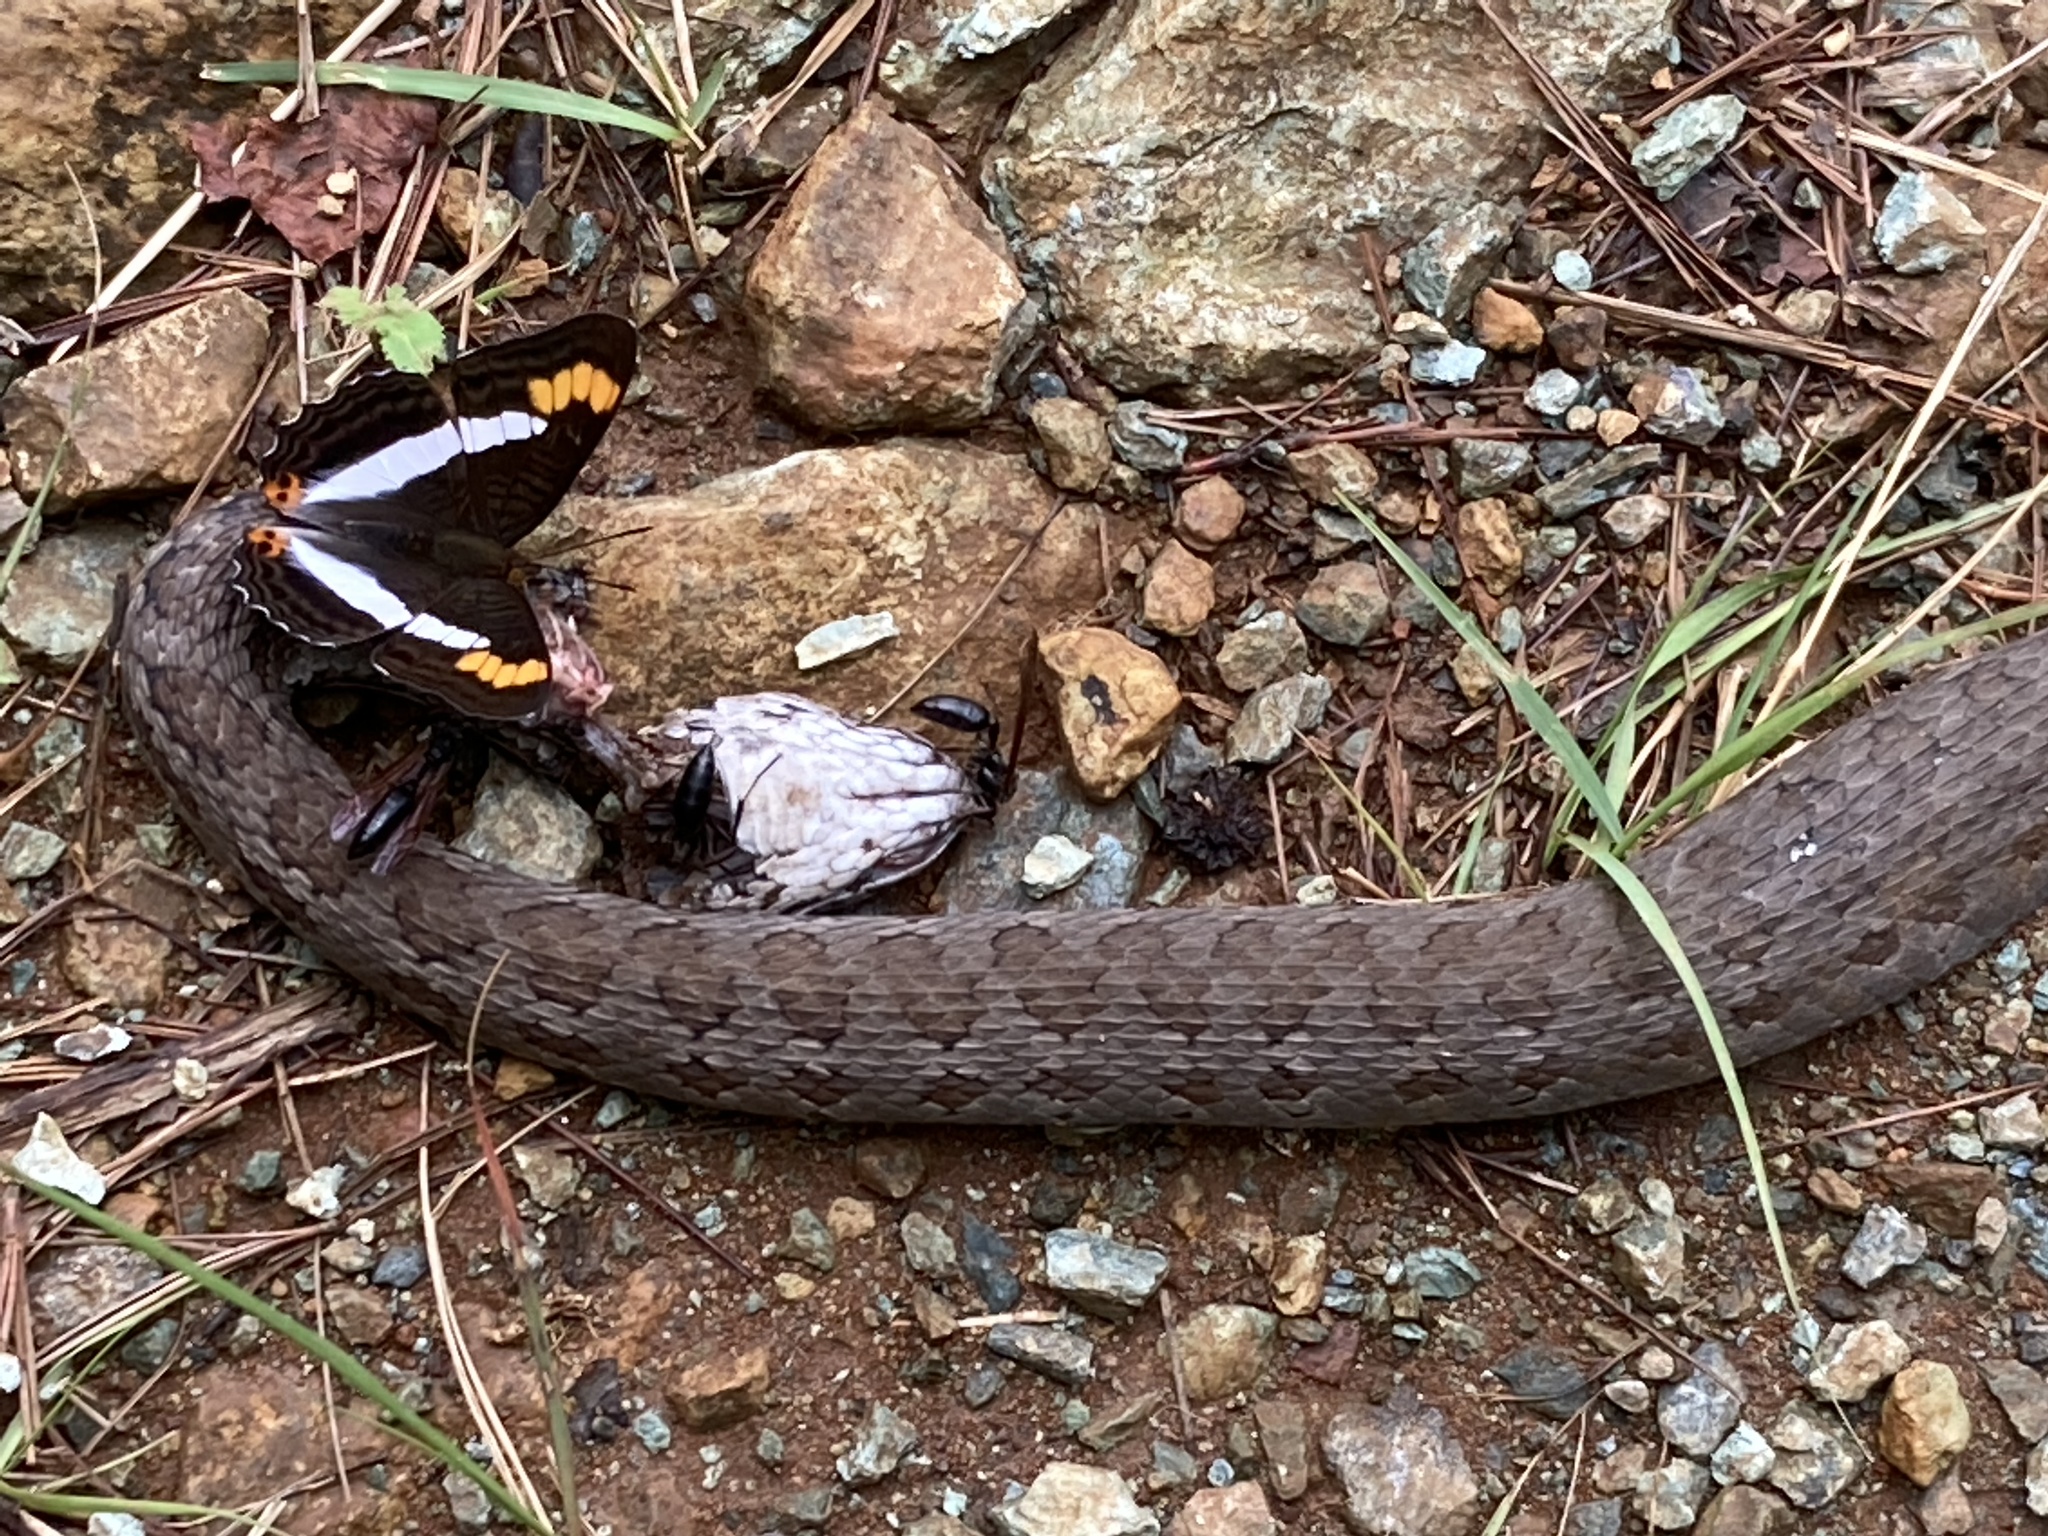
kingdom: Animalia
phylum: Chordata
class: Squamata
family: Viperidae
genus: Cerrophidion
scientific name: Cerrophidion godmani
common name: Godman's montane pit viper
